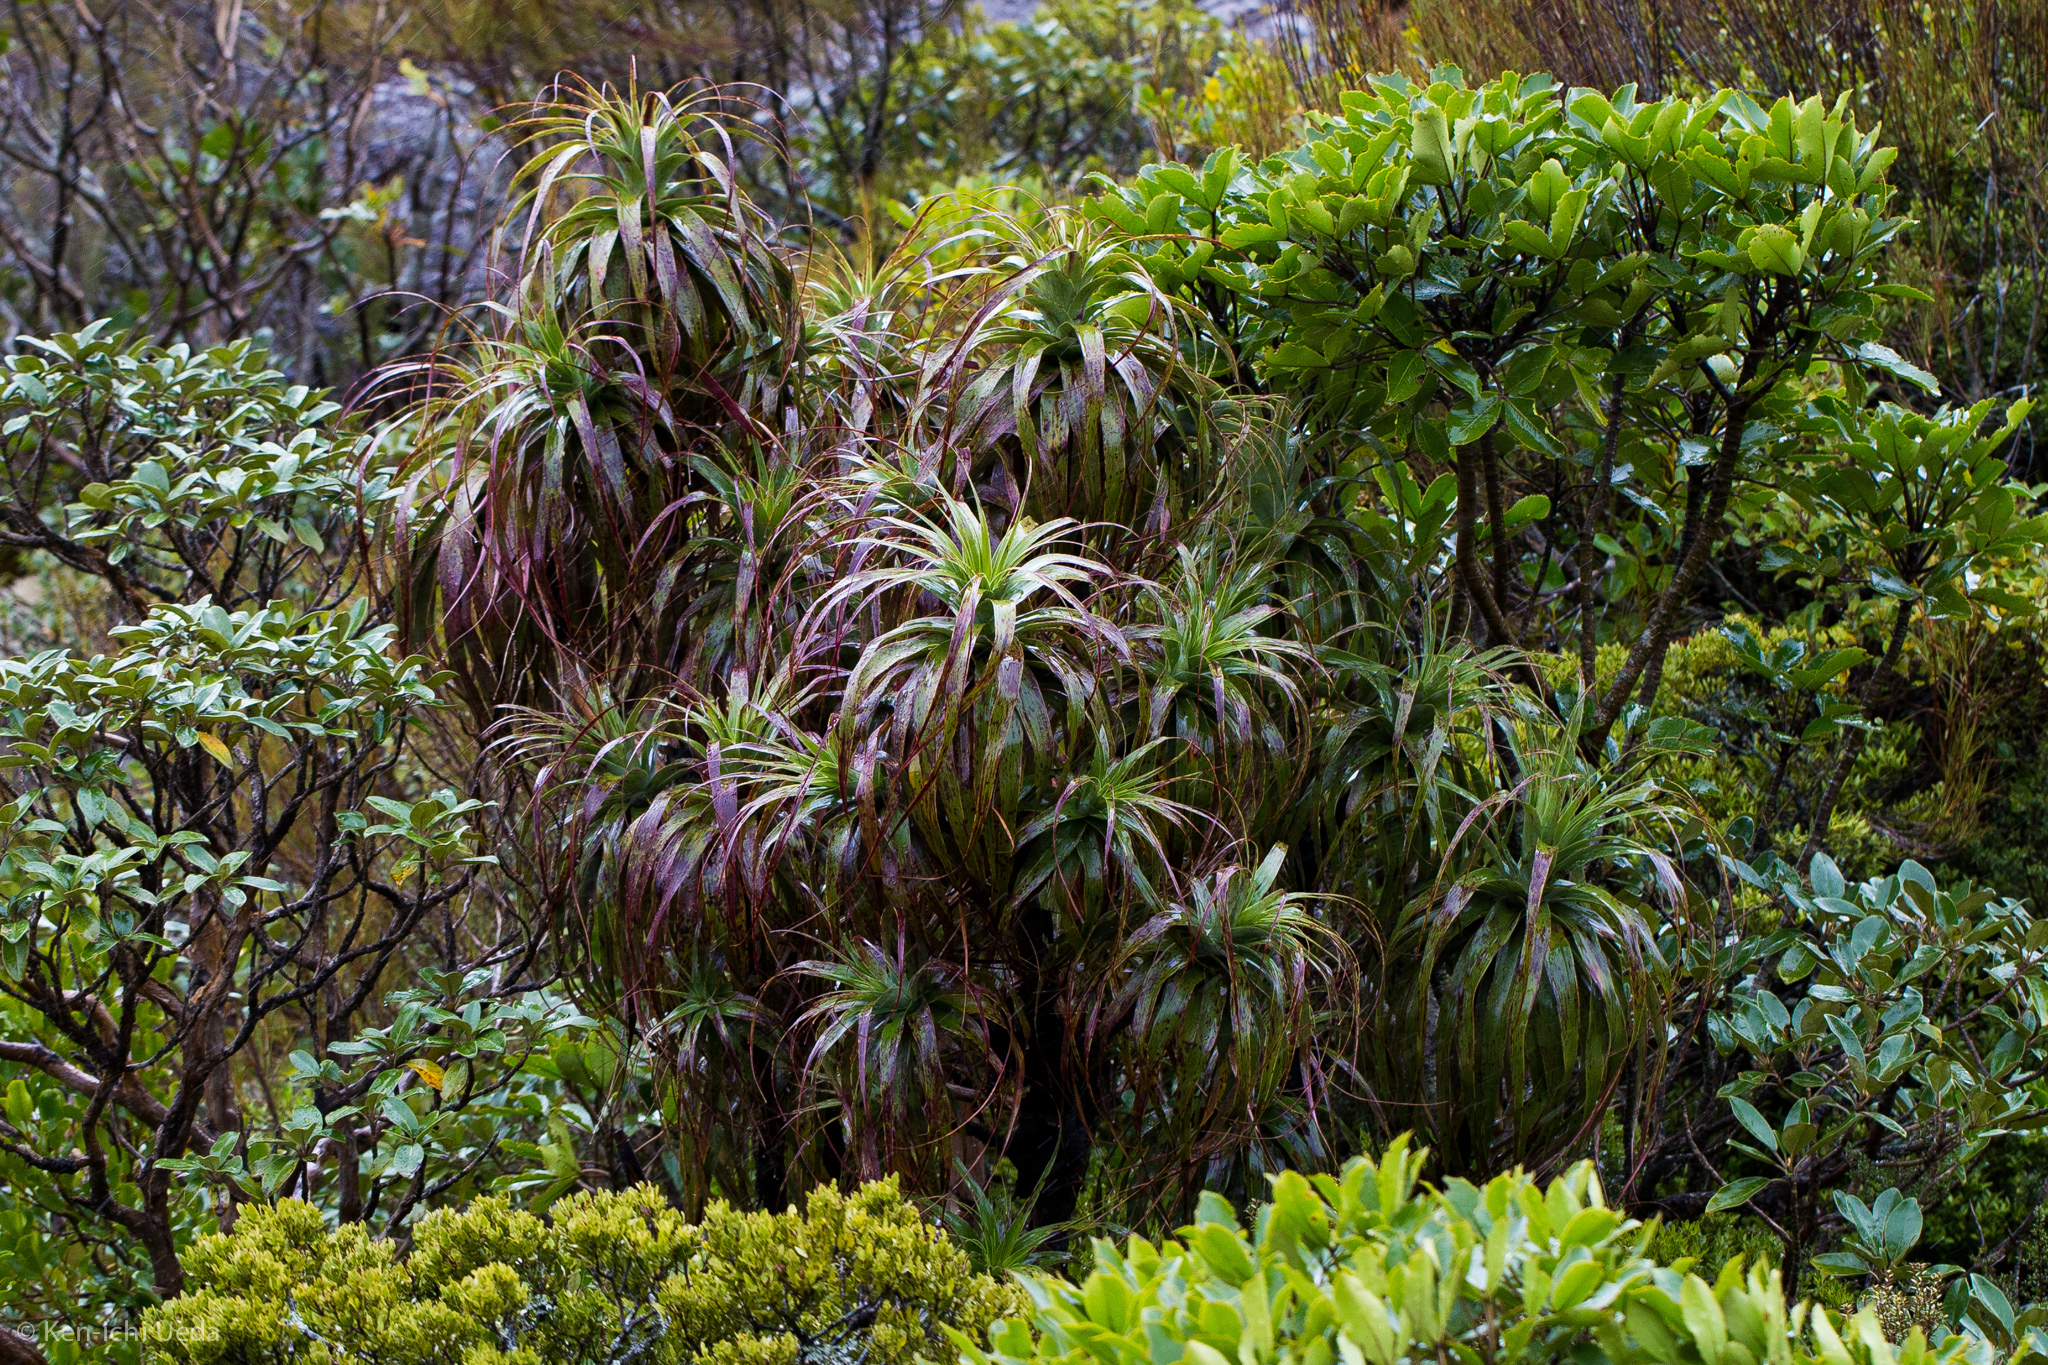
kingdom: Plantae
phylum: Tracheophyta
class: Magnoliopsida
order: Ericales
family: Ericaceae
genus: Dracophyllum
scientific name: Dracophyllum traversii
